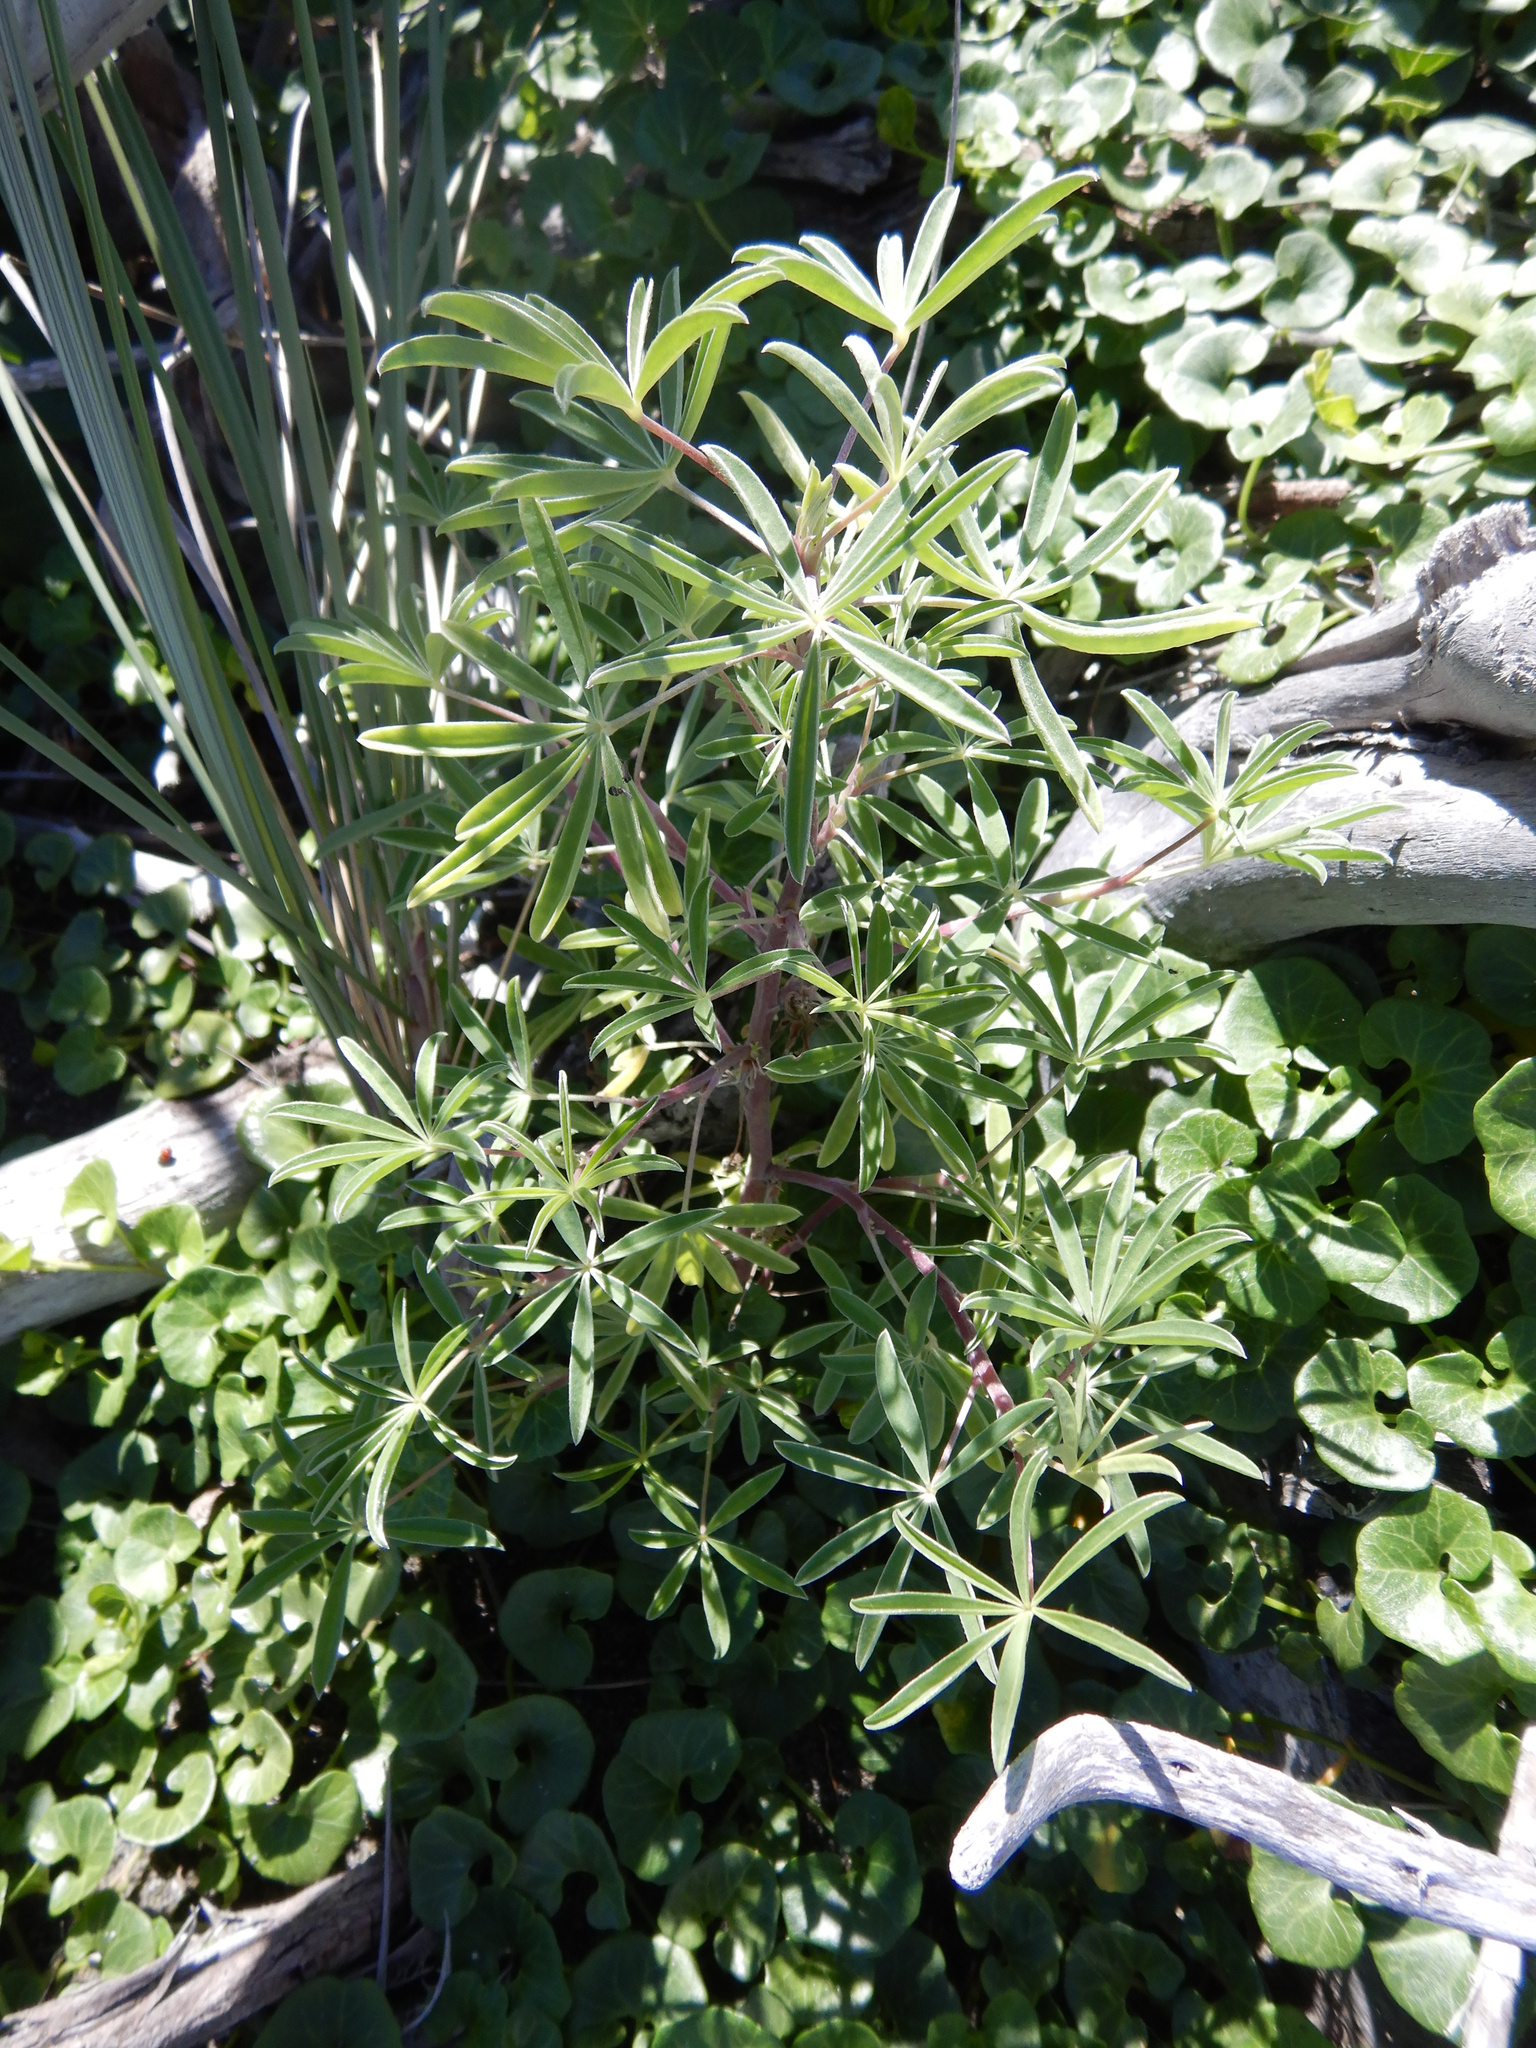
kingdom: Plantae
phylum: Tracheophyta
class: Magnoliopsida
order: Fabales
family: Fabaceae
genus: Lupinus
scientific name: Lupinus arboreus
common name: Yellow bush lupine
